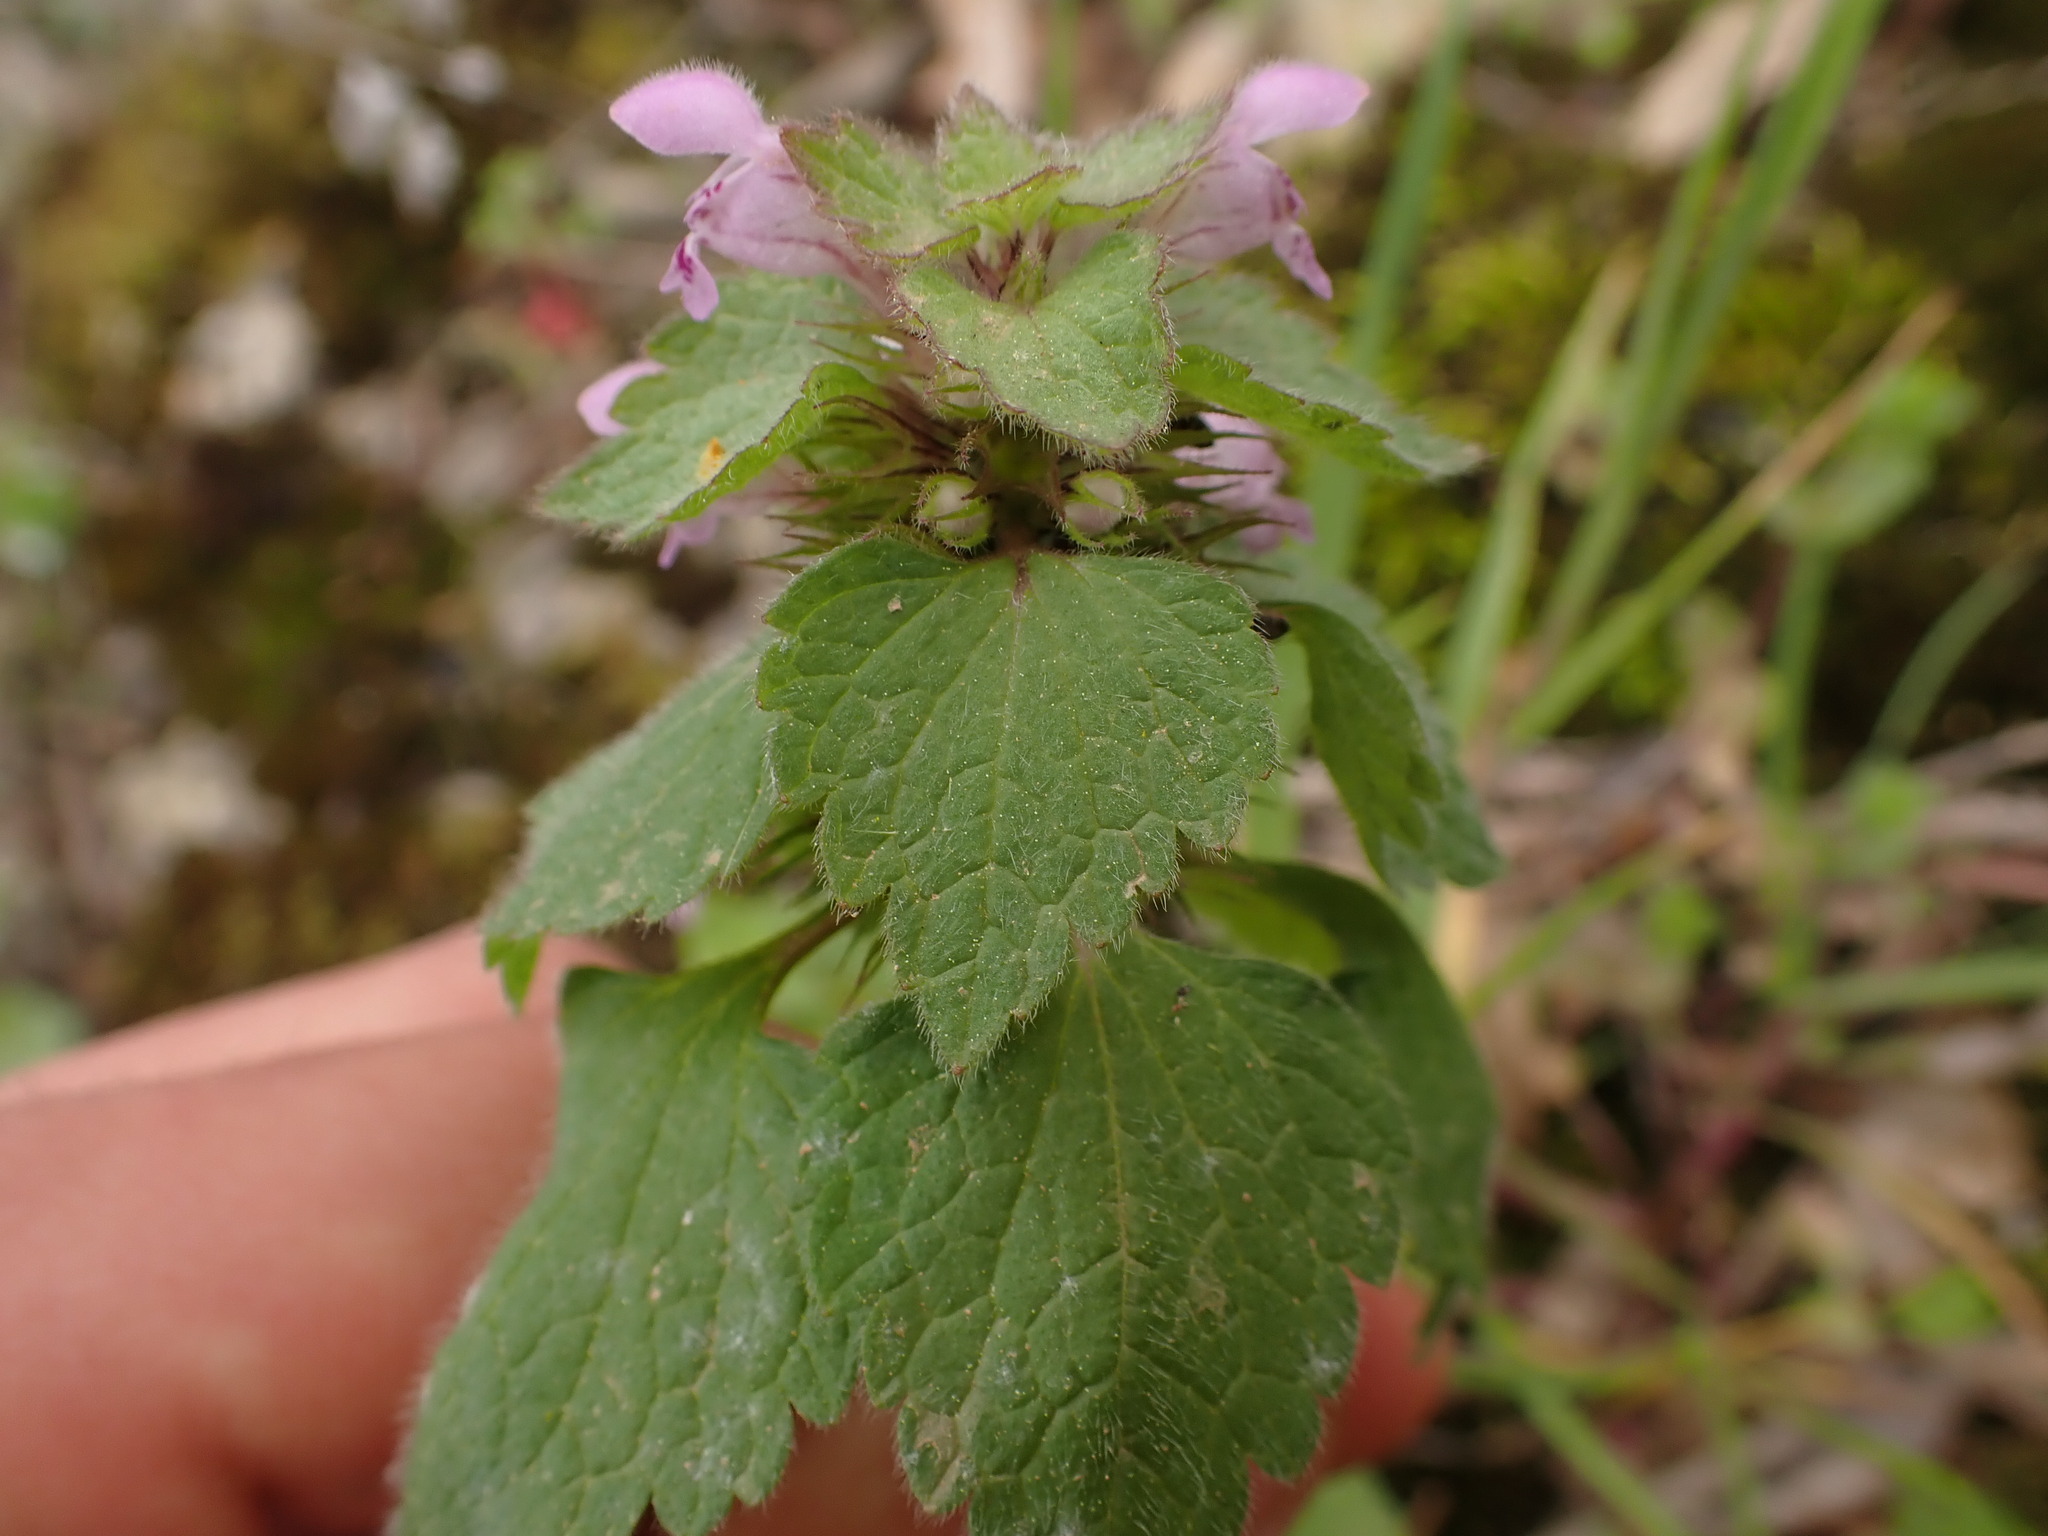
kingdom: Plantae
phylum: Tracheophyta
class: Magnoliopsida
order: Lamiales
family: Lamiaceae
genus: Lamium
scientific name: Lamium purpureum
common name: Red dead-nettle
